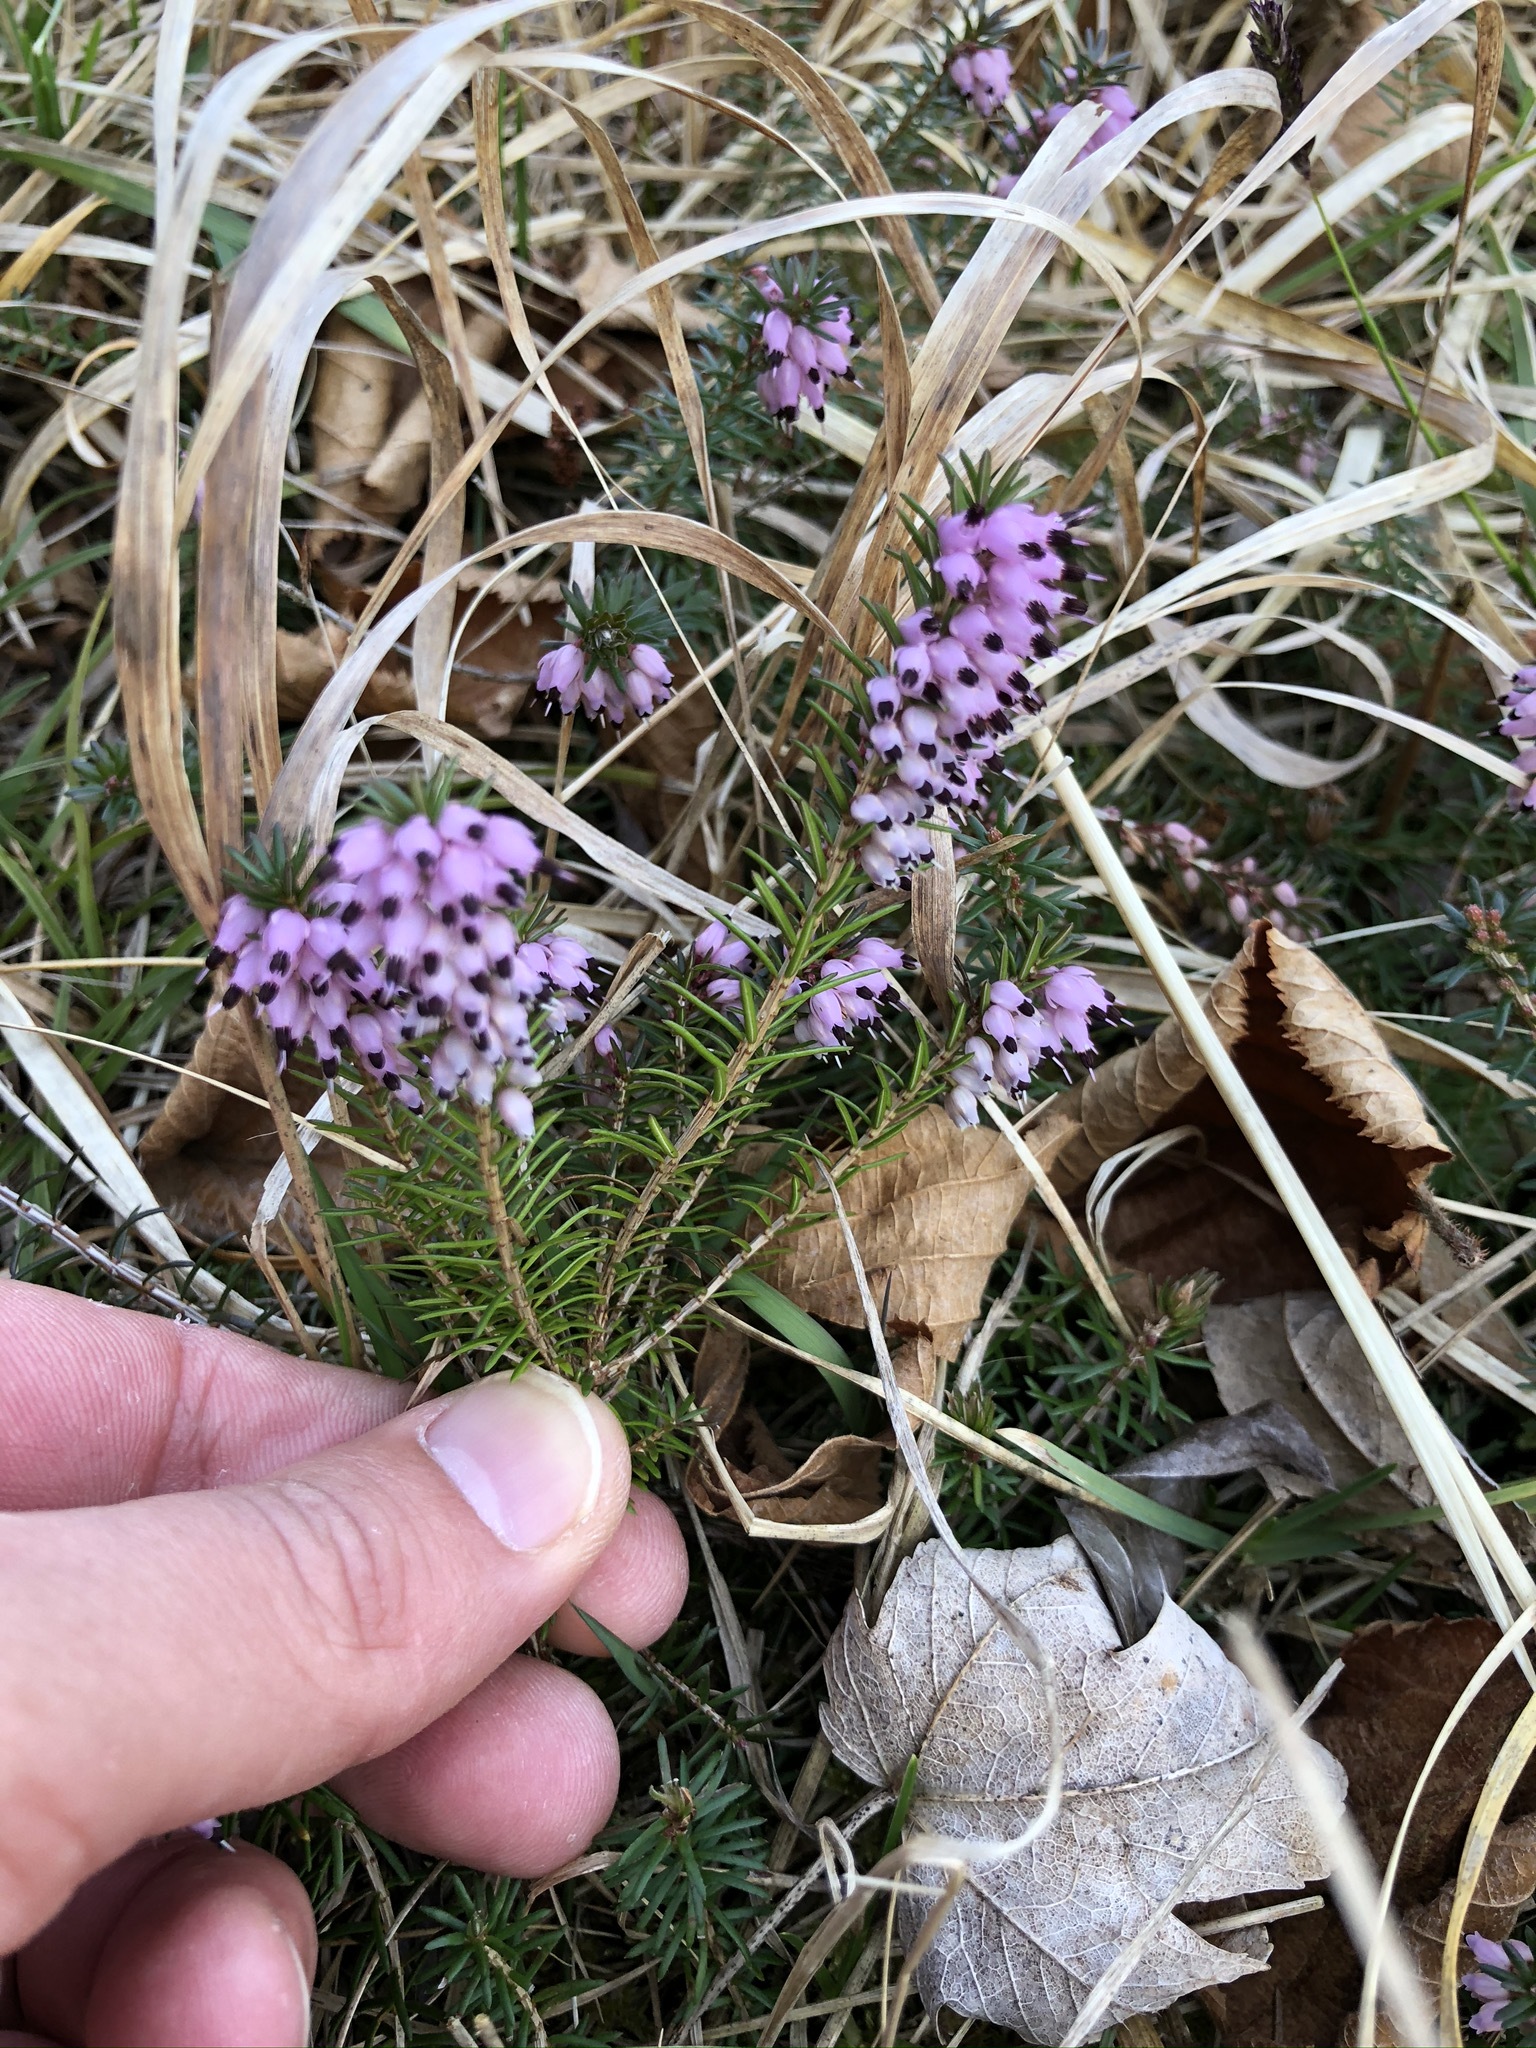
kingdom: Plantae
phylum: Tracheophyta
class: Magnoliopsida
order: Ericales
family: Ericaceae
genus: Erica
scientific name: Erica carnea
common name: Winter heath
